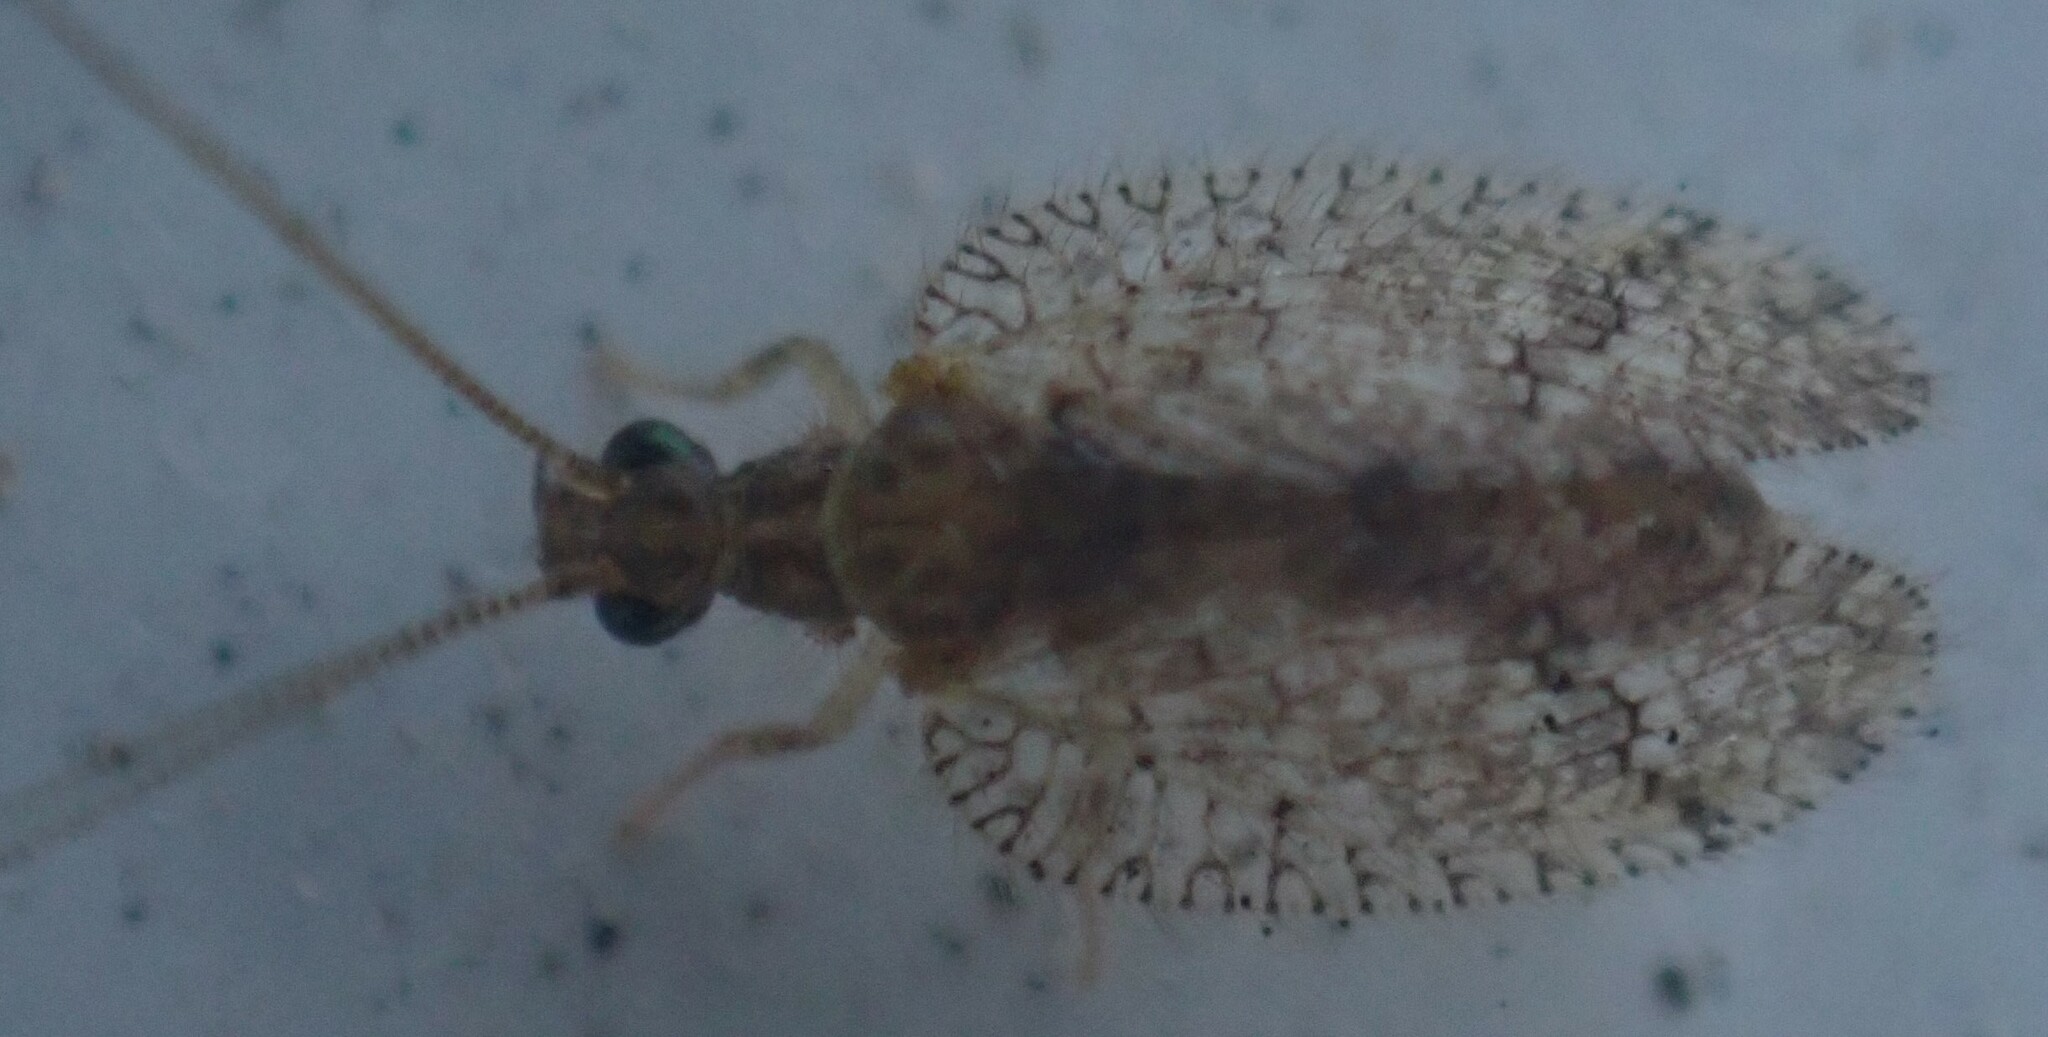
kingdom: Animalia
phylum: Arthropoda
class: Insecta
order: Neuroptera
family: Hemerobiidae
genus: Psectra
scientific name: Psectra nakaharai
